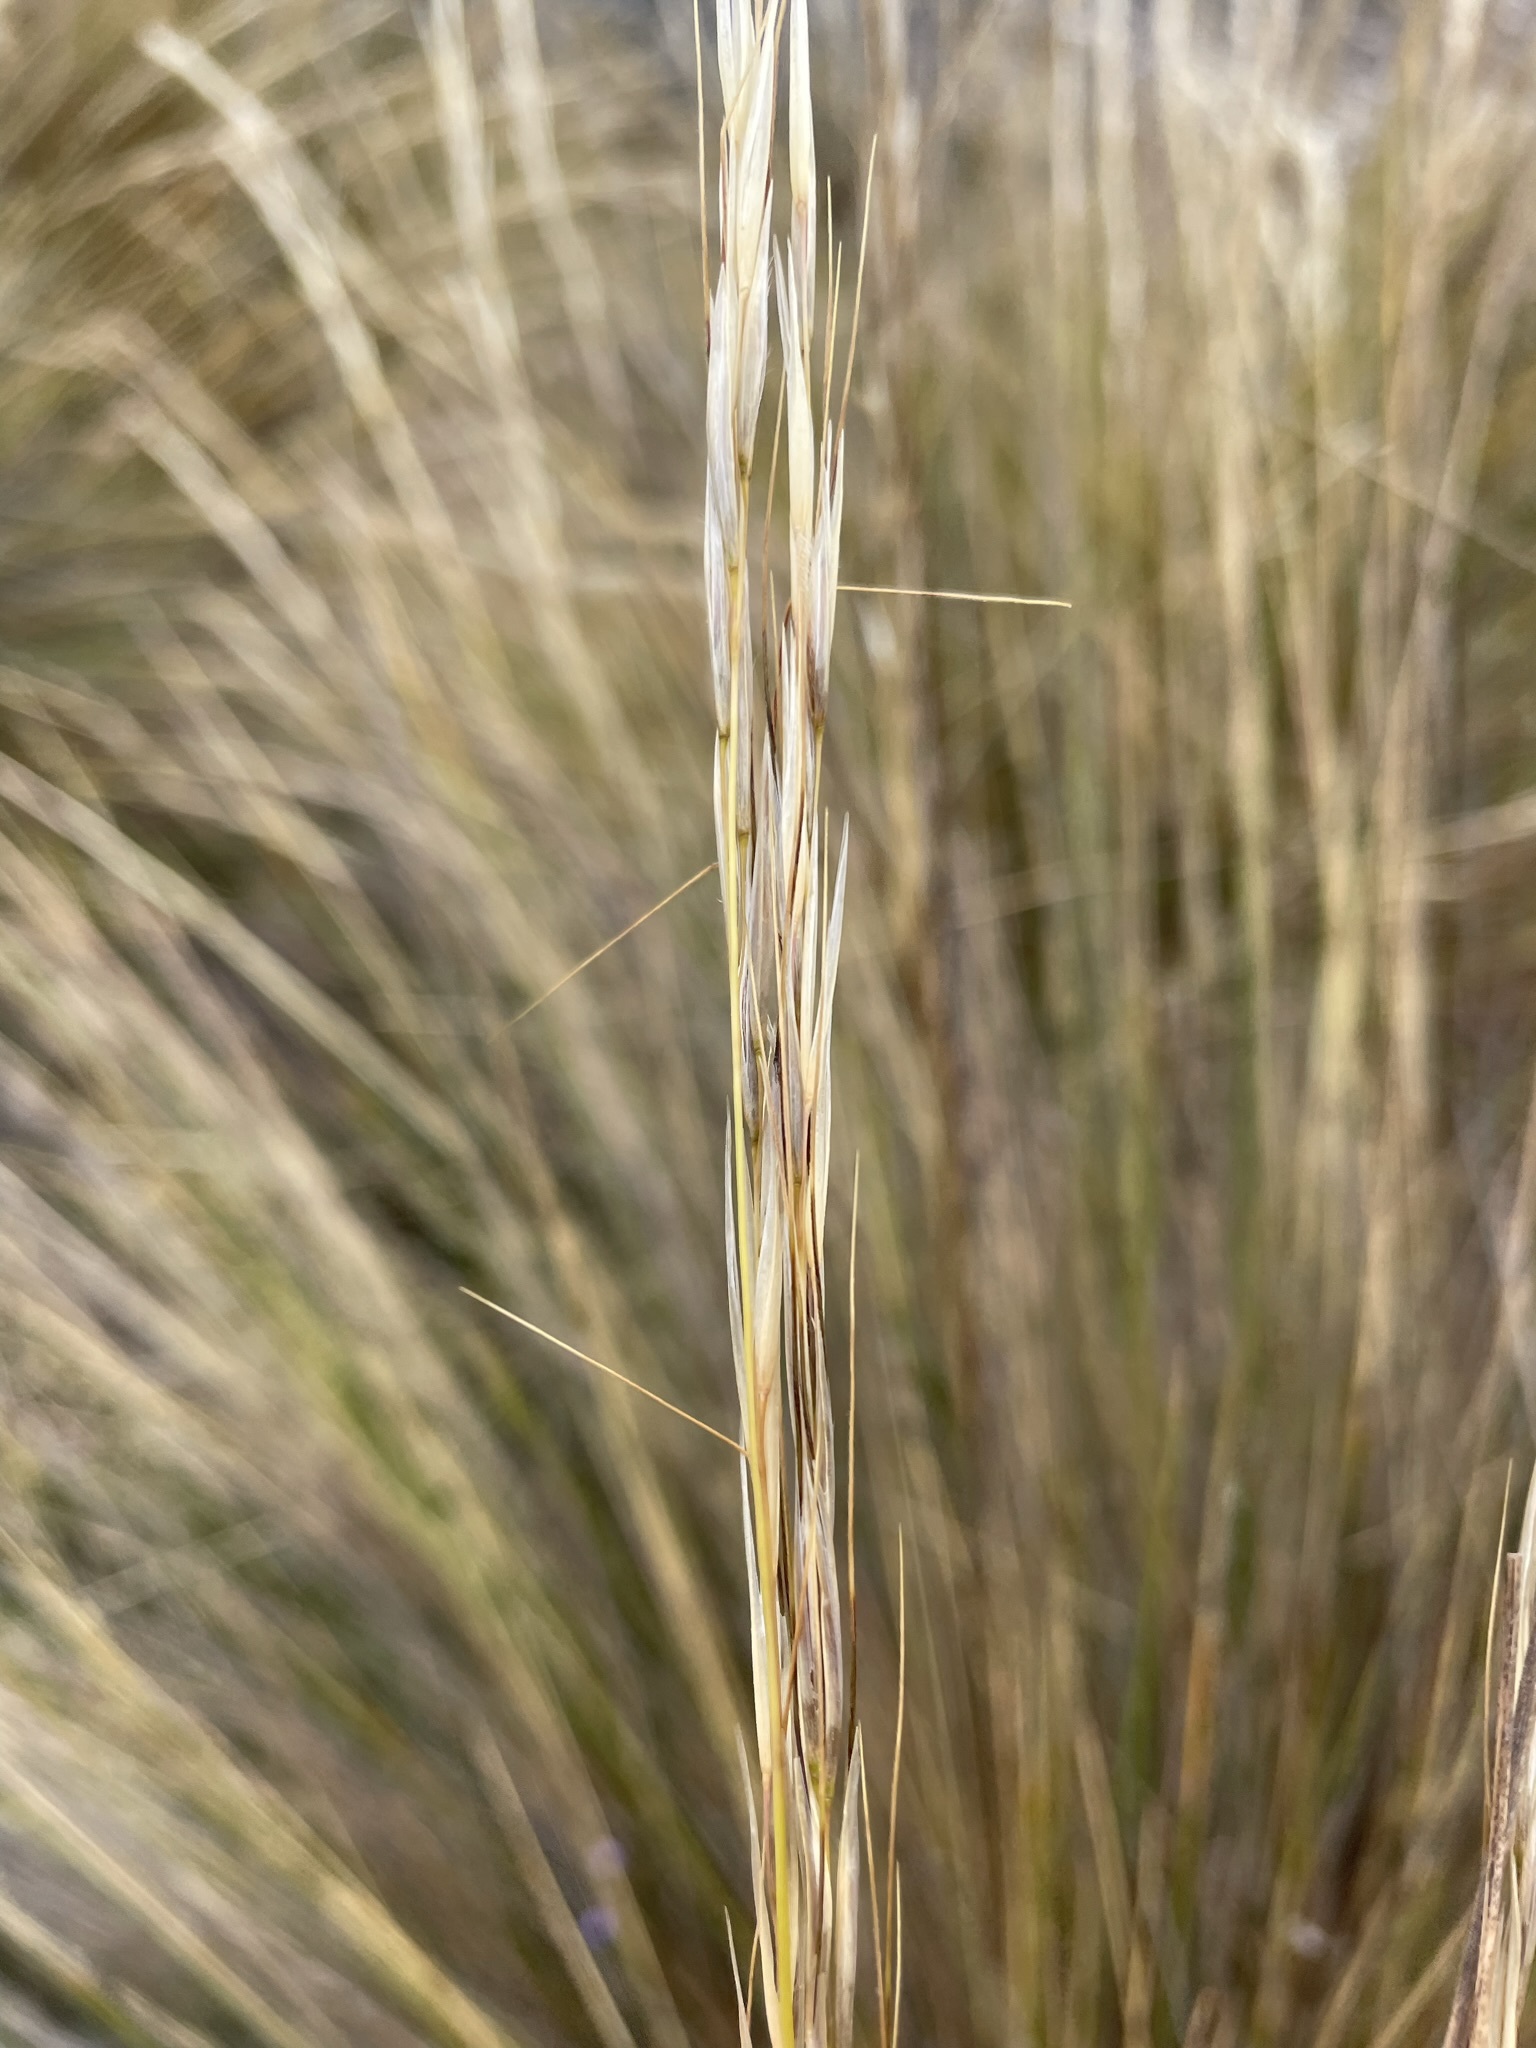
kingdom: Plantae
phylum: Tracheophyta
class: Liliopsida
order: Poales
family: Poaceae
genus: Austrostipa
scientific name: Austrostipa stipoides
